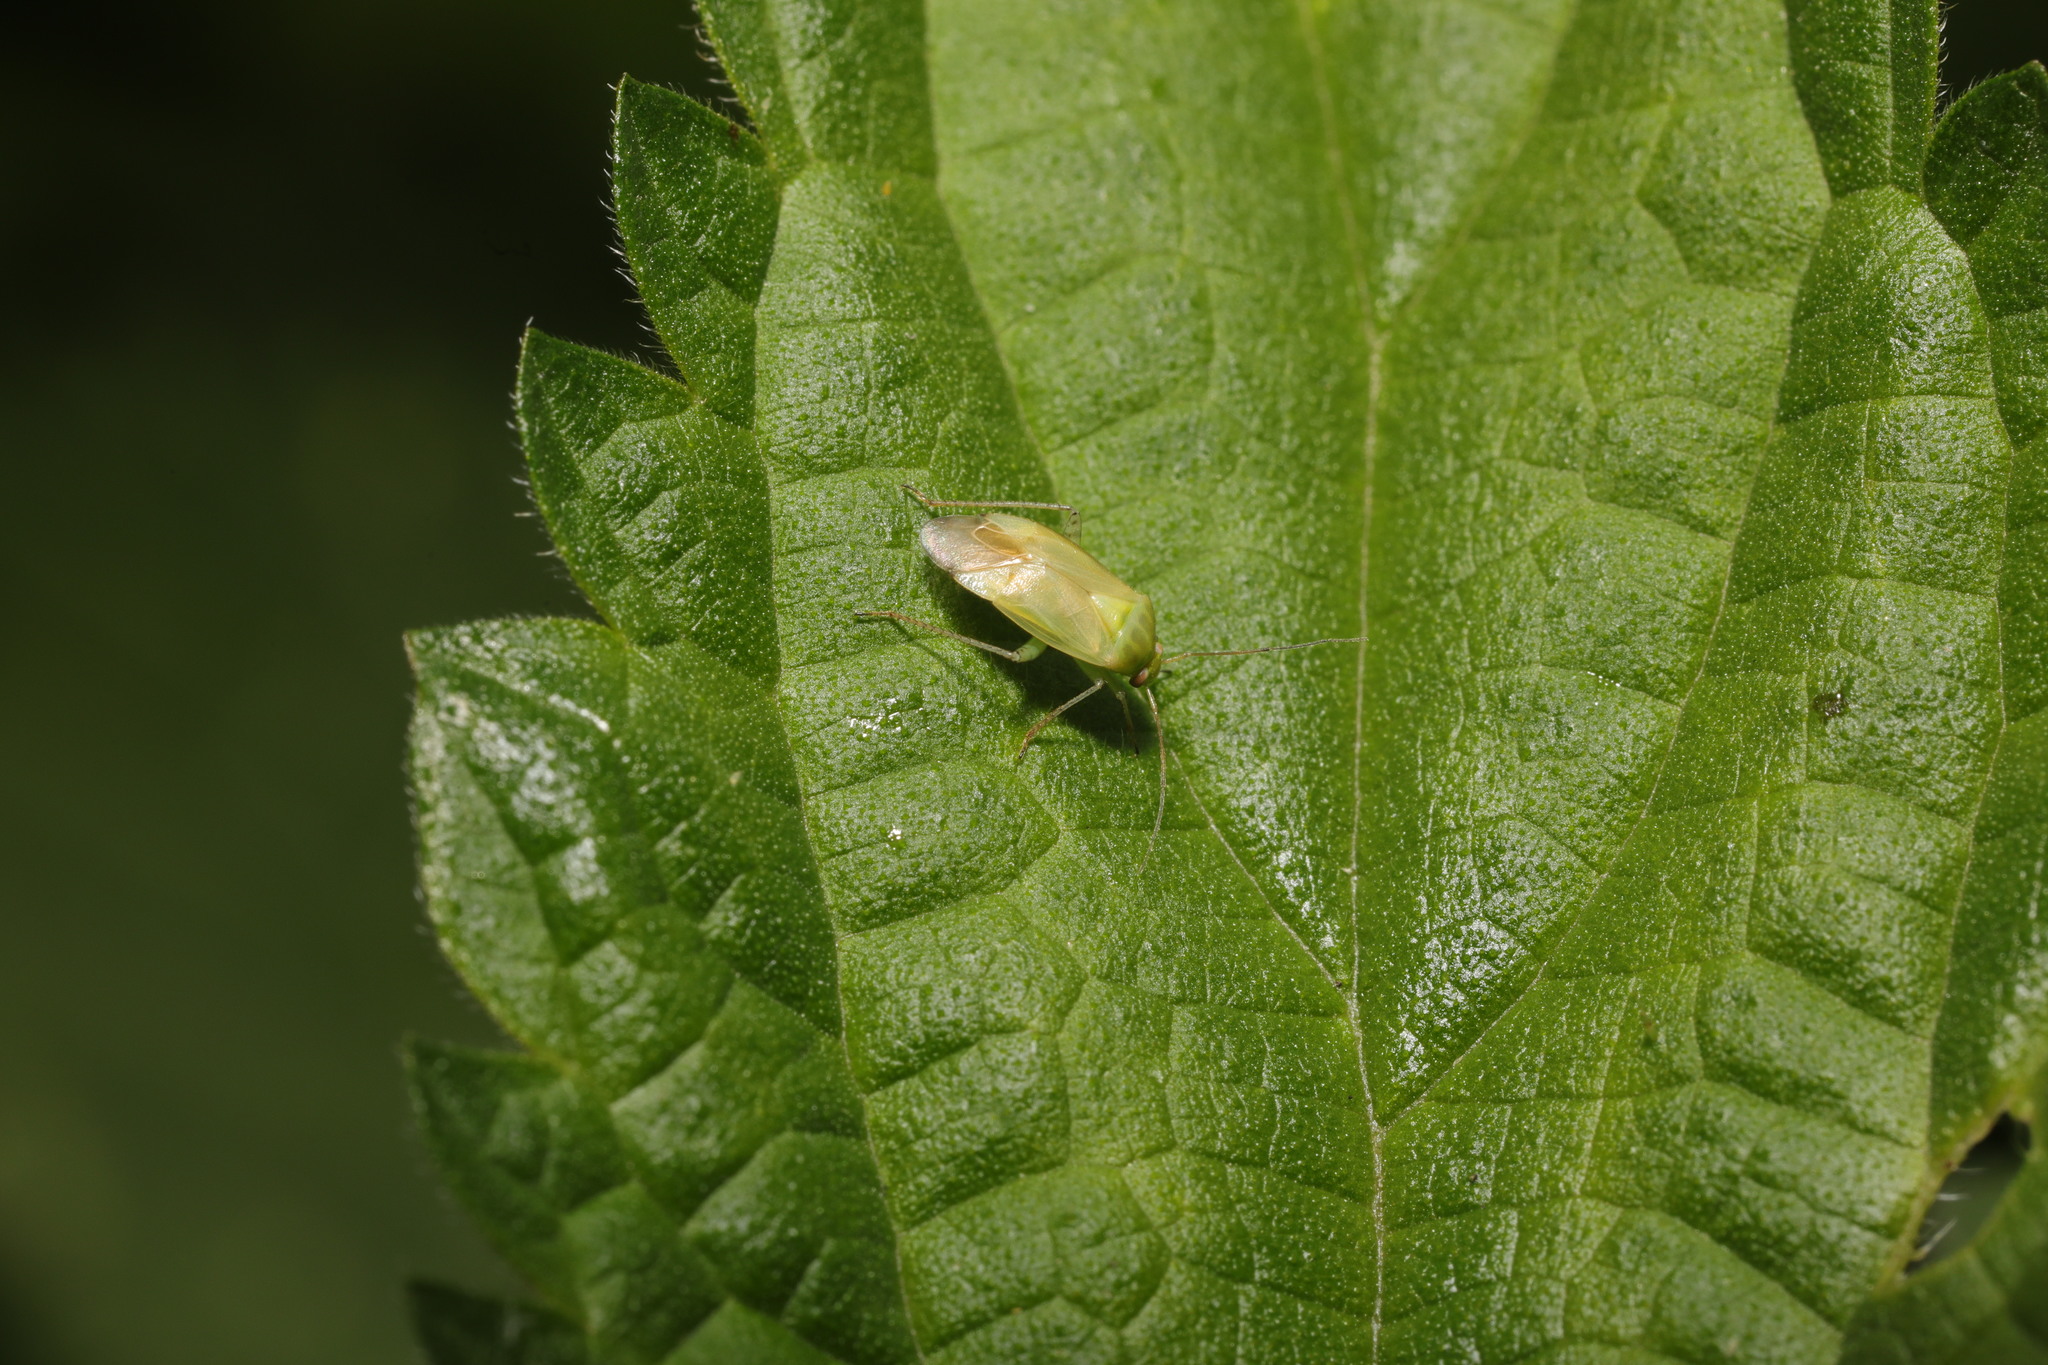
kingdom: Animalia
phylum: Arthropoda
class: Insecta
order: Hemiptera
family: Miridae
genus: Apolygus
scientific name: Apolygus spinolae
